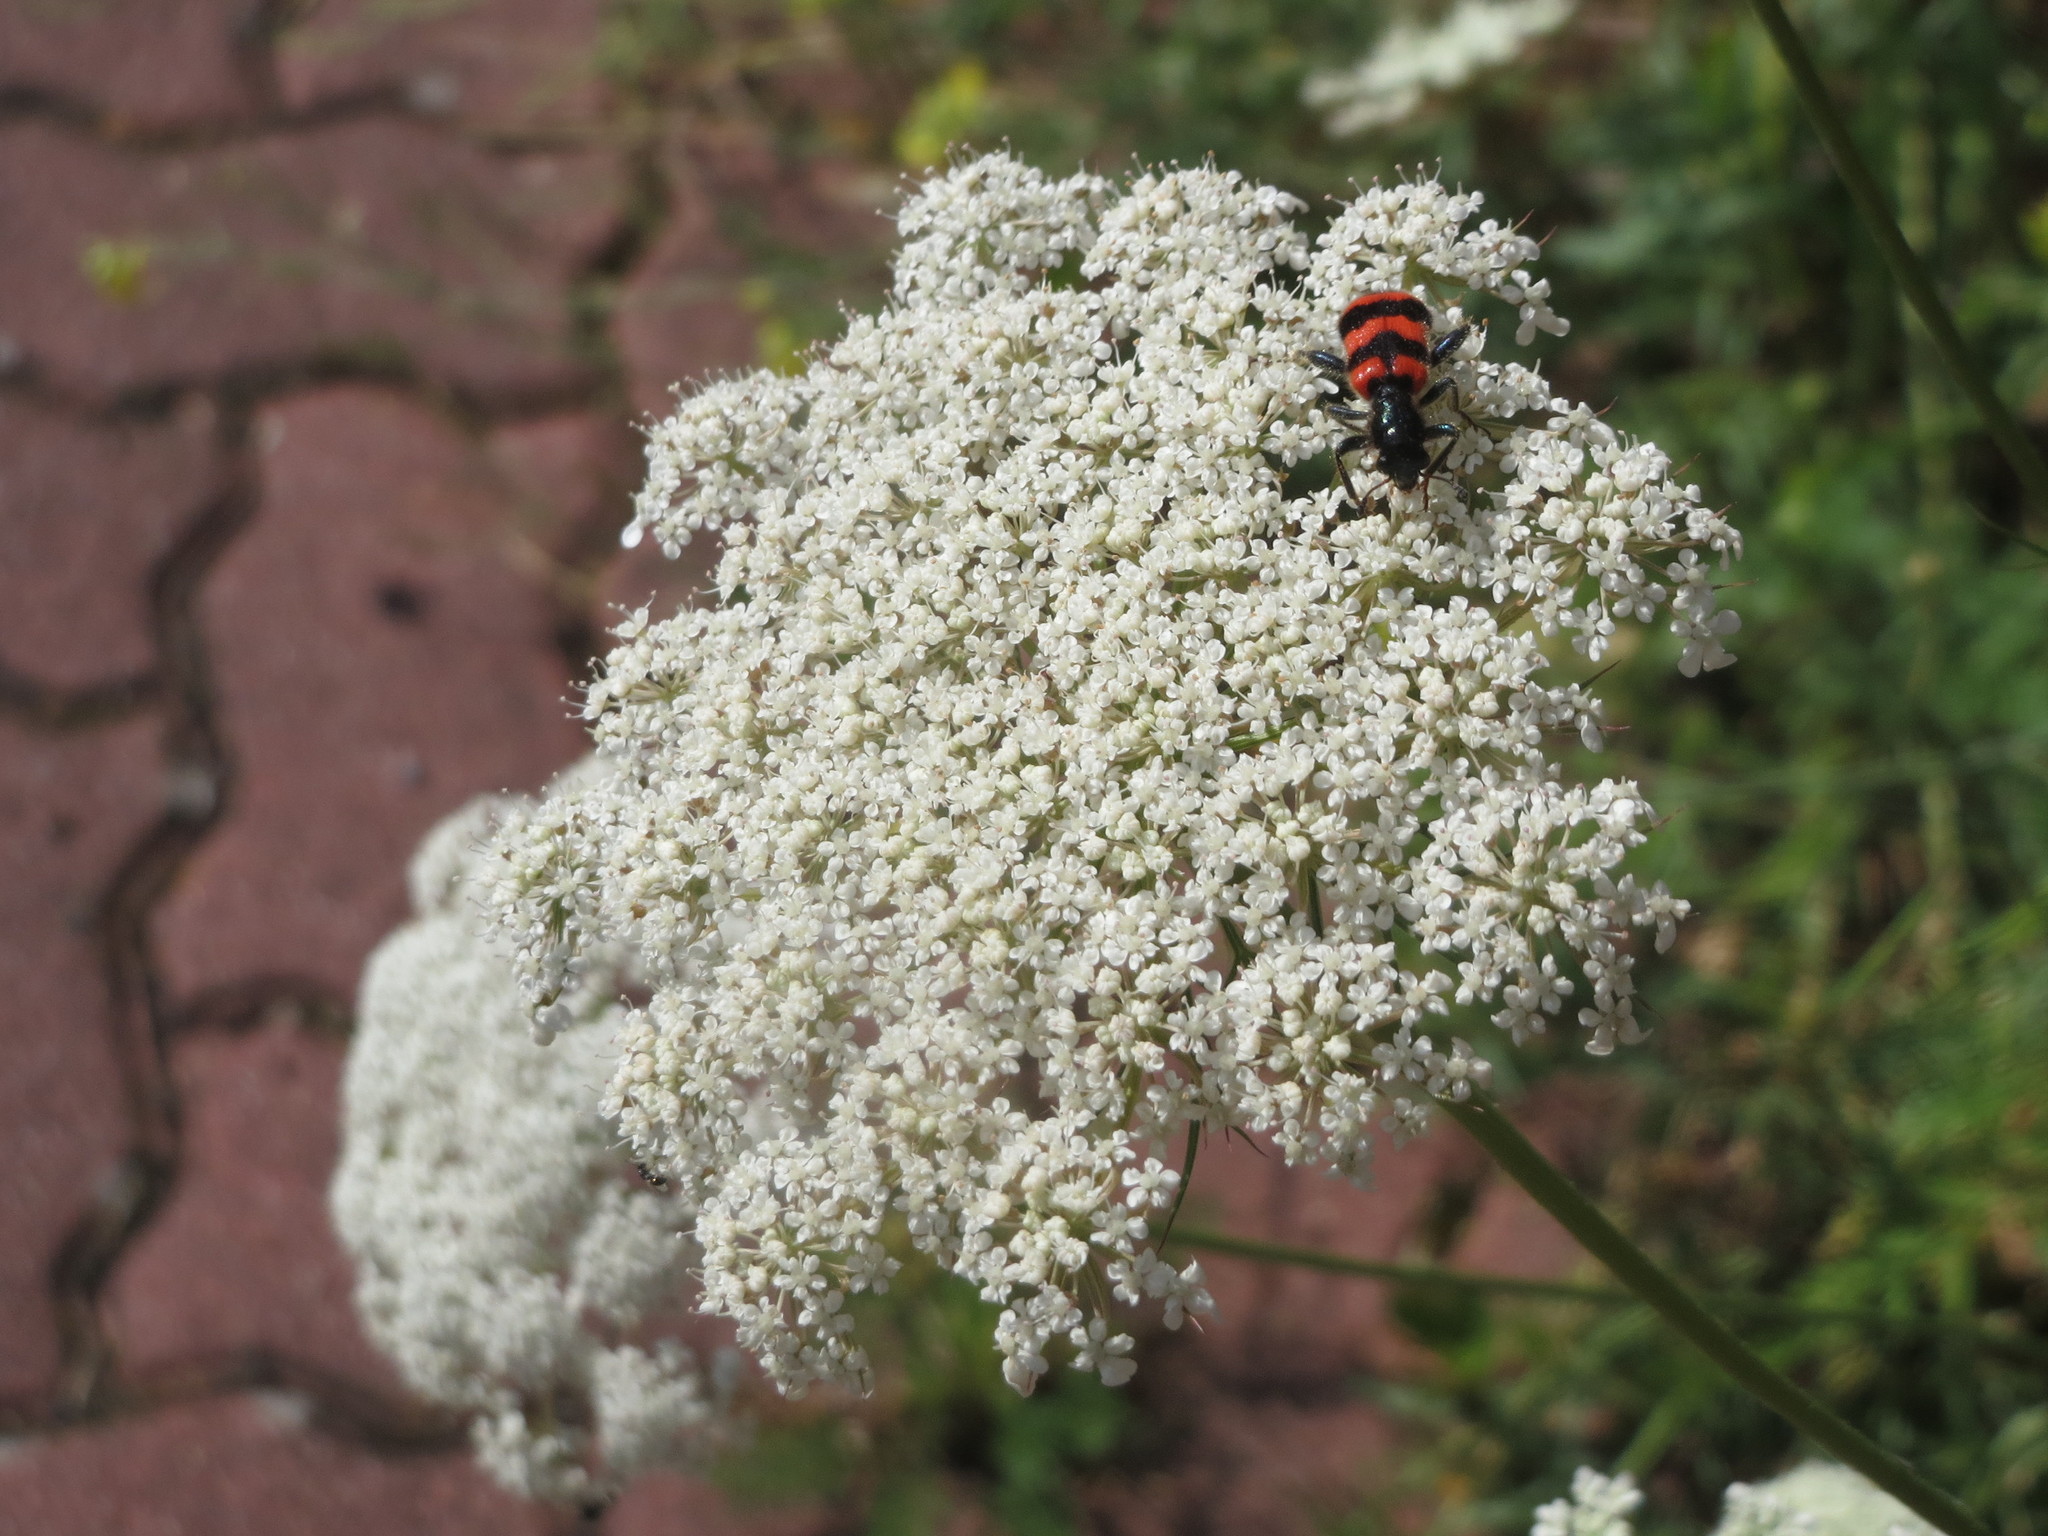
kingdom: Plantae
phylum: Tracheophyta
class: Magnoliopsida
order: Apiales
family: Apiaceae
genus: Daucus
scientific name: Daucus carota
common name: Wild carrot
